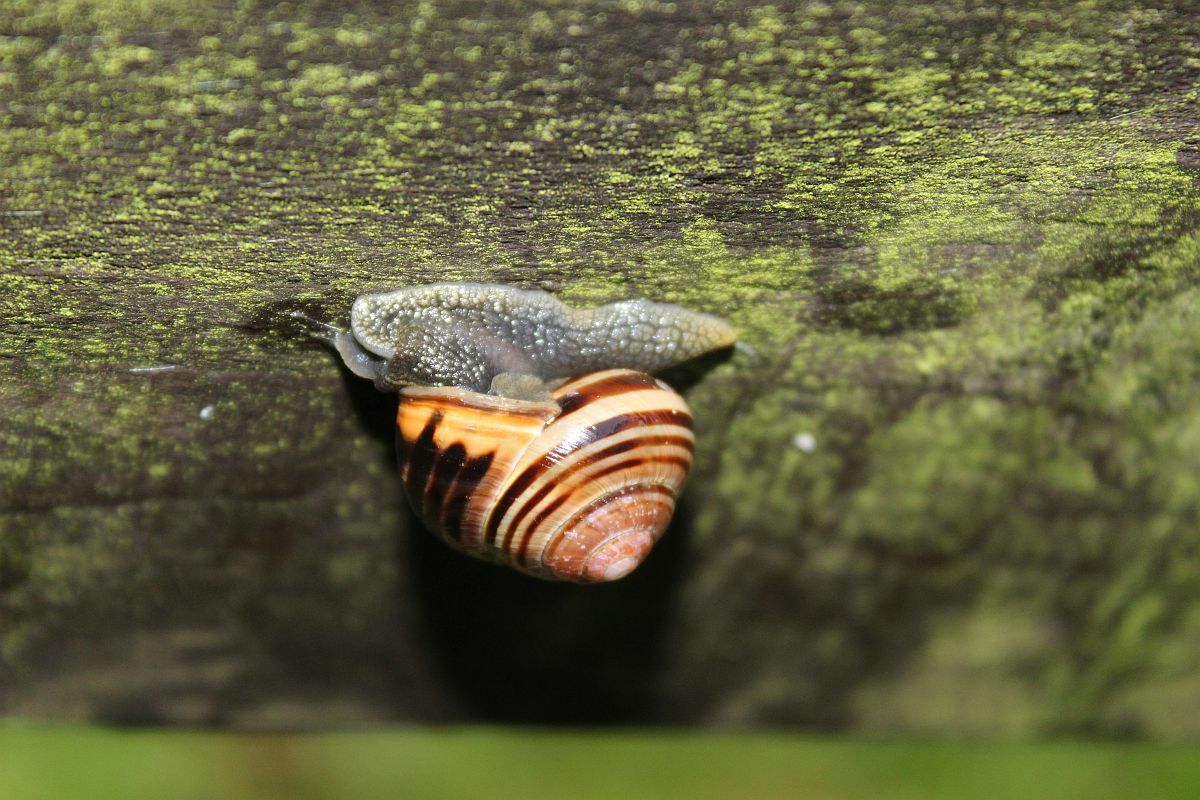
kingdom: Animalia
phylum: Mollusca
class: Gastropoda
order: Stylommatophora
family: Helicidae
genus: Cepaea
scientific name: Cepaea nemoralis
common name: Grovesnail
